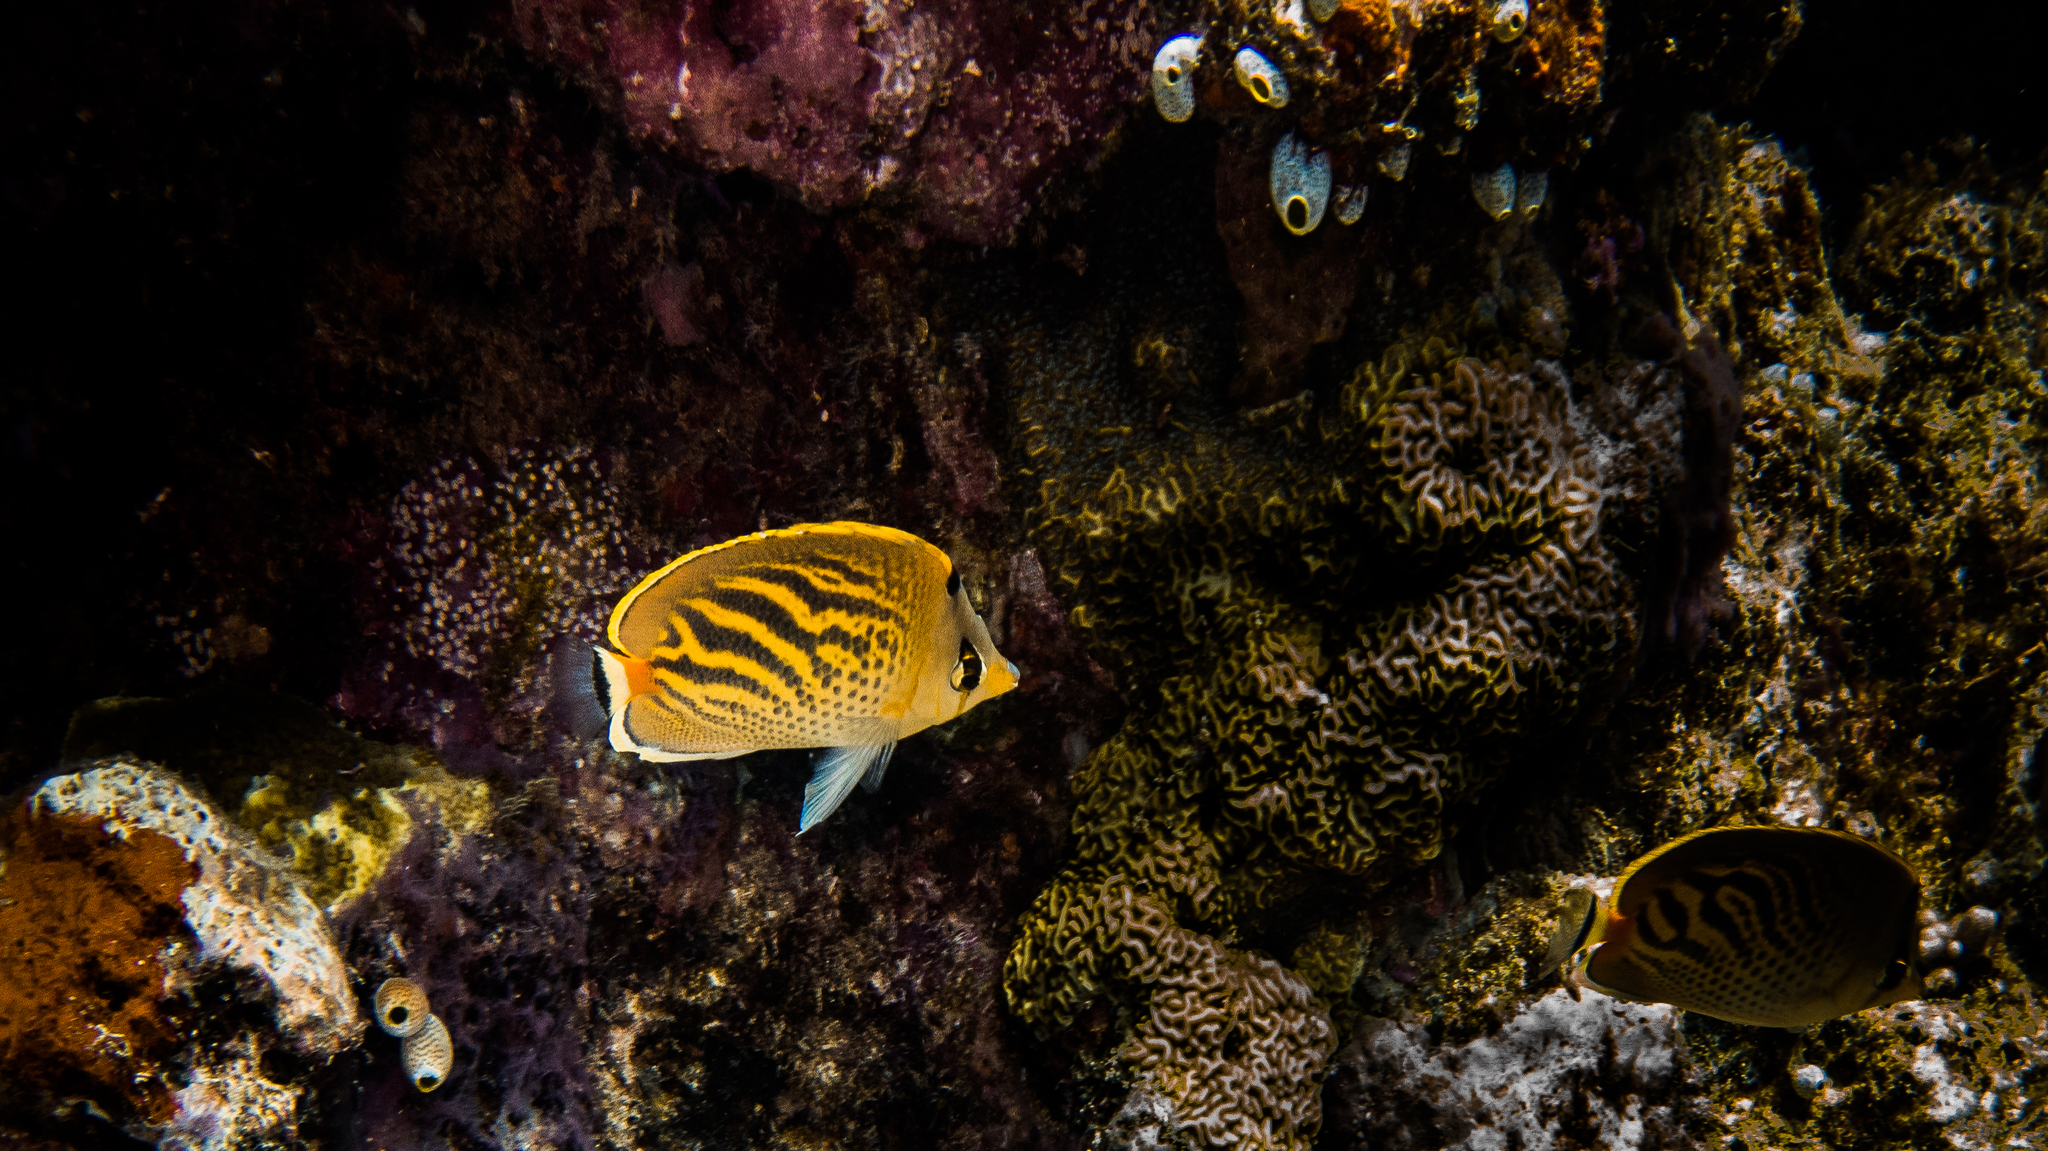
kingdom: Animalia
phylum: Chordata
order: Perciformes
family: Chaetodontidae
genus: Chaetodon
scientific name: Chaetodon pelewensis
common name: Dot-and-dash butterflyfish
